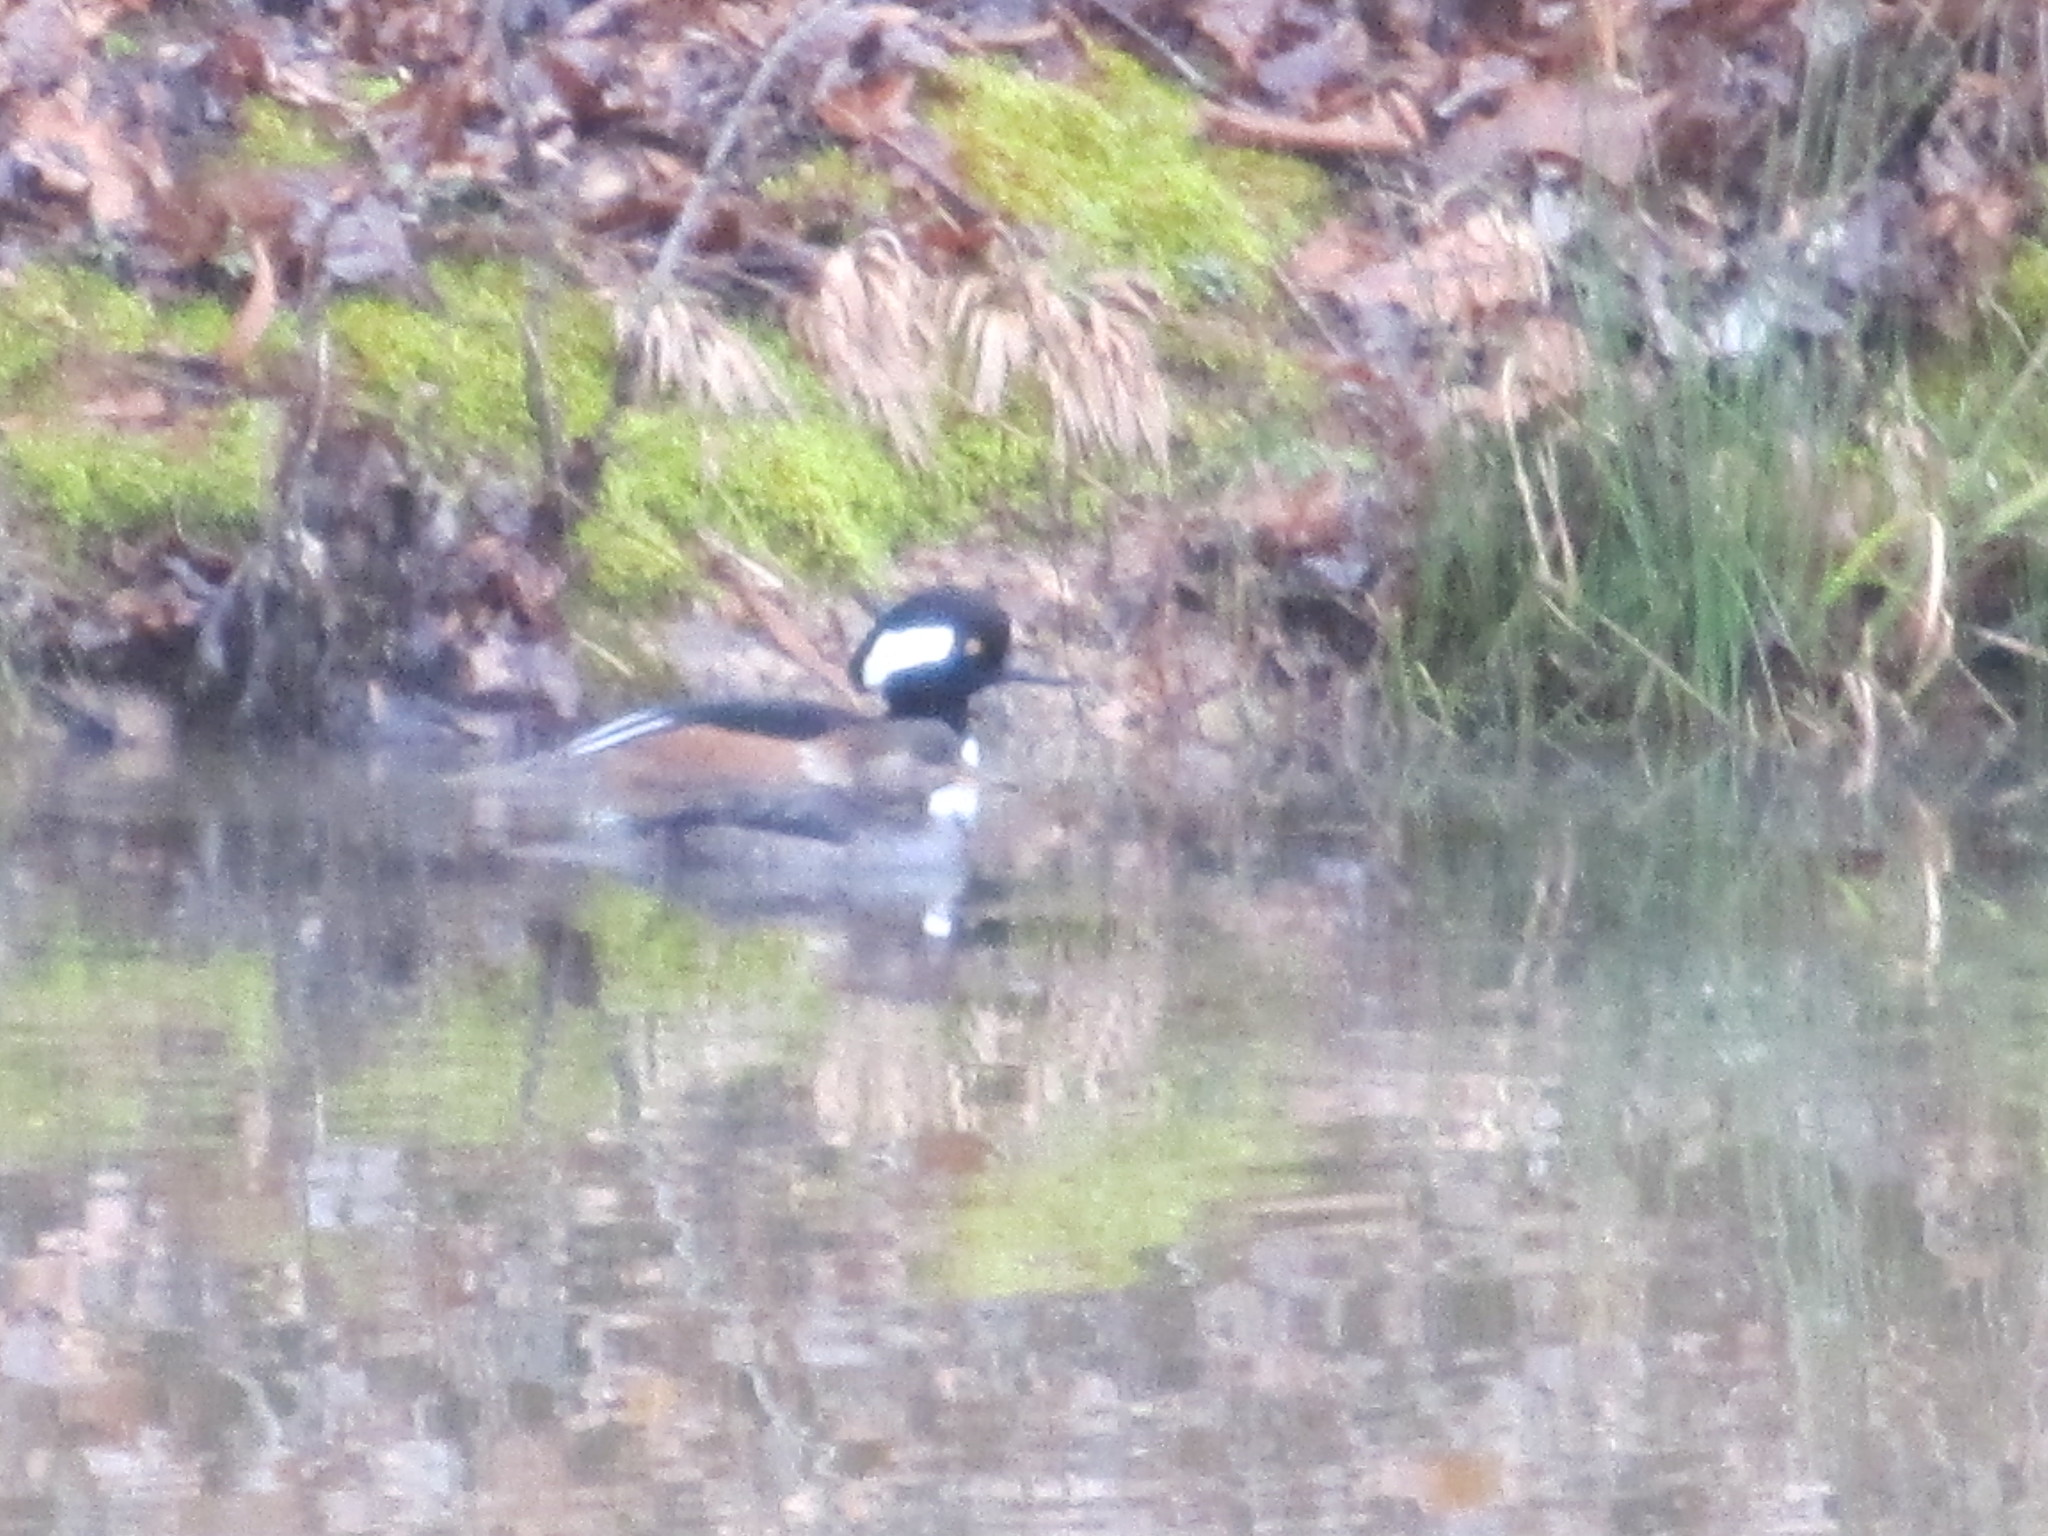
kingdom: Animalia
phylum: Chordata
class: Aves
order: Anseriformes
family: Anatidae
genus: Lophodytes
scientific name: Lophodytes cucullatus
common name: Hooded merganser
